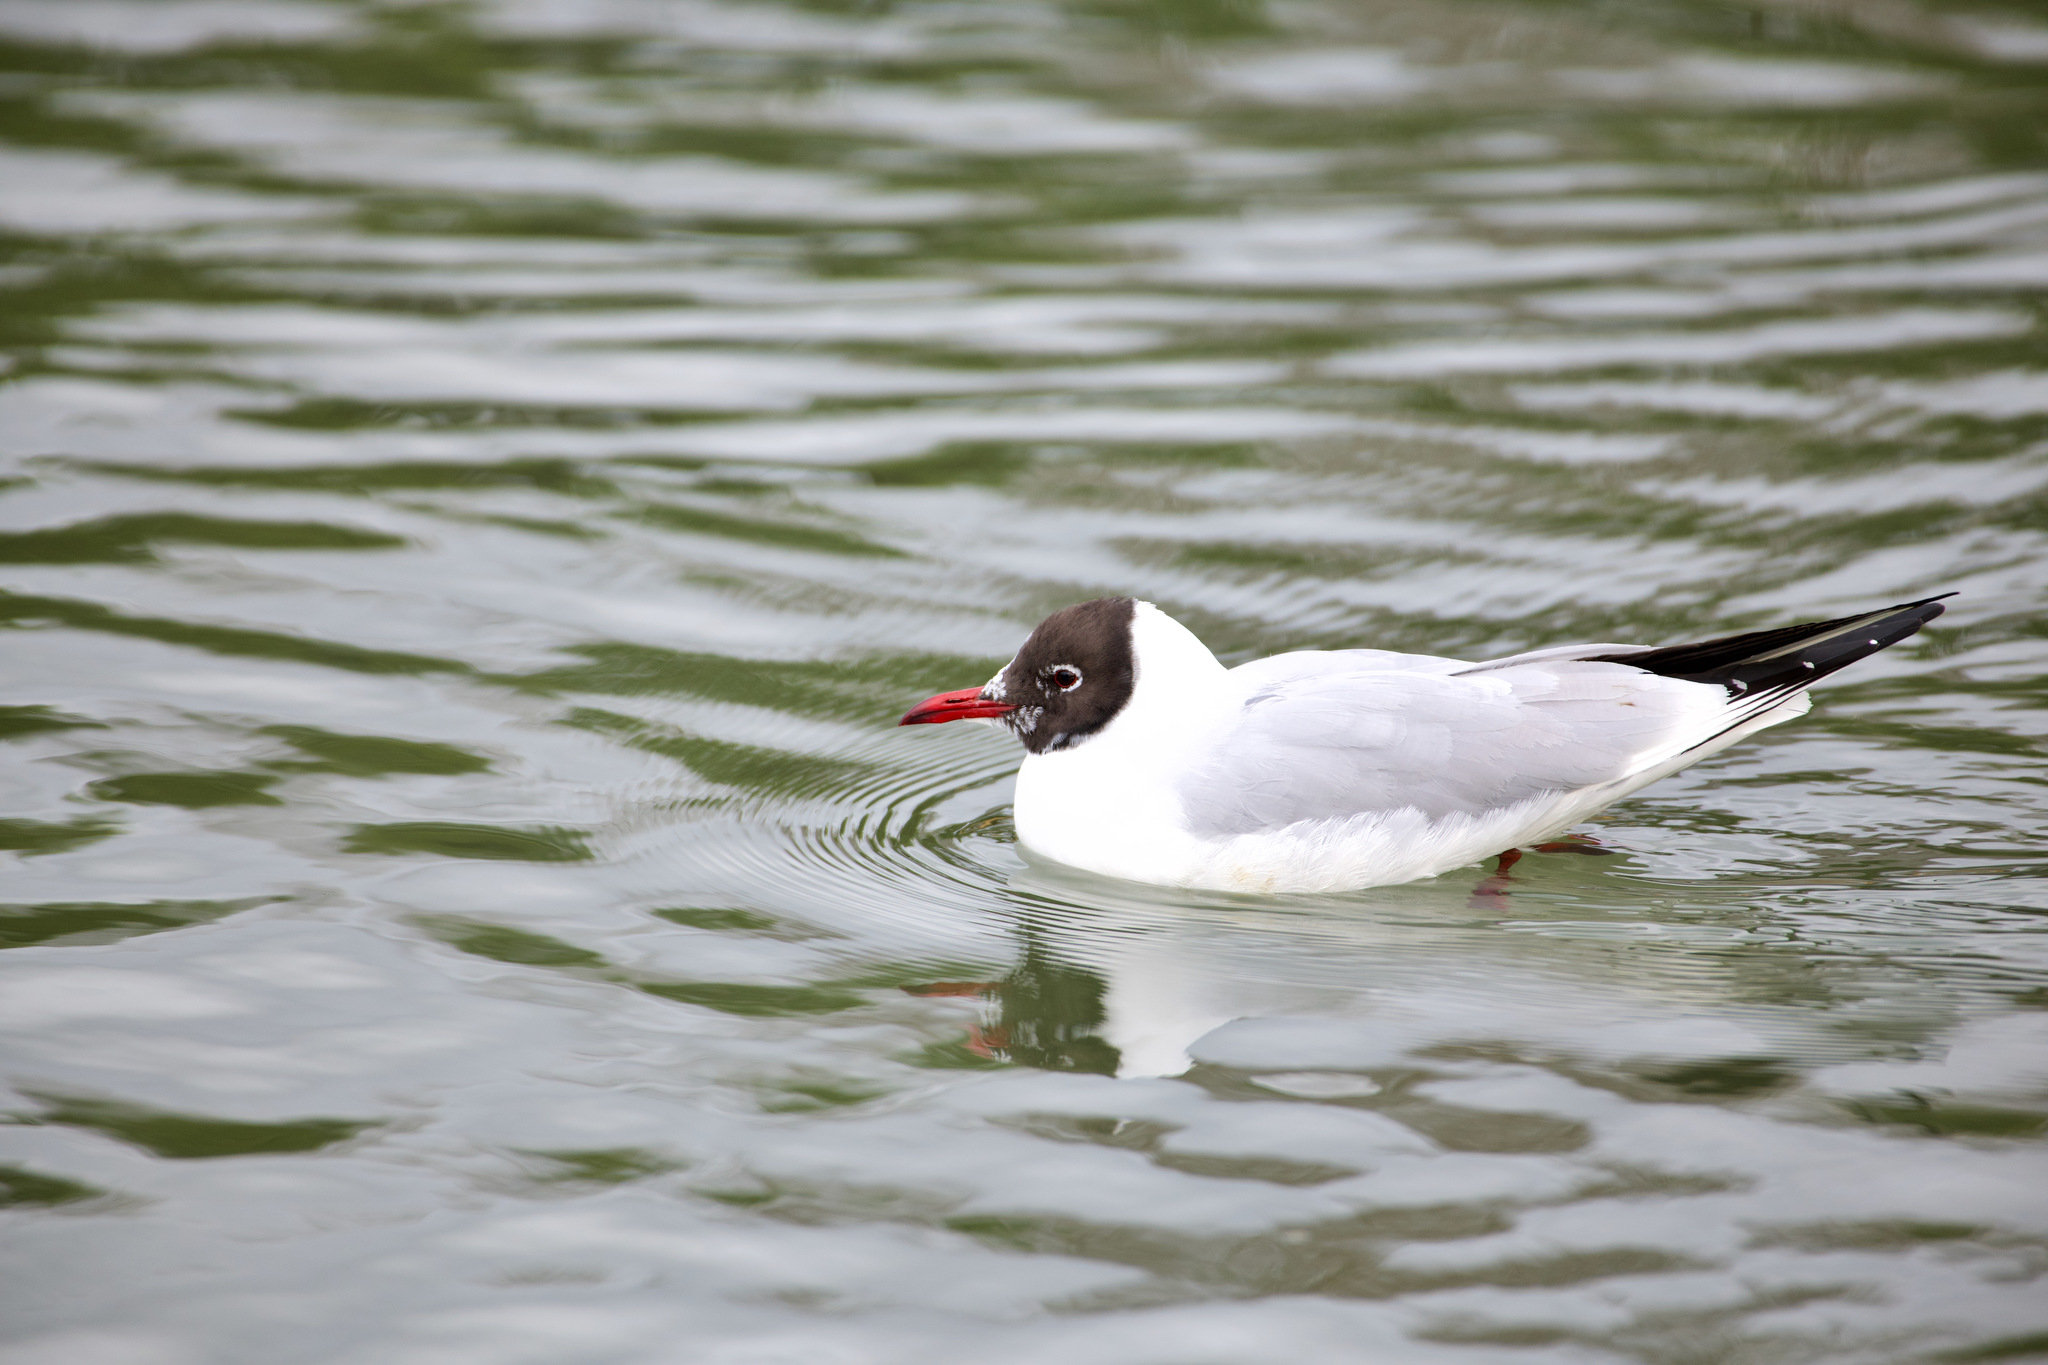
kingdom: Animalia
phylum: Chordata
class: Aves
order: Charadriiformes
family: Laridae
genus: Chroicocephalus
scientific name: Chroicocephalus ridibundus
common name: Black-headed gull
